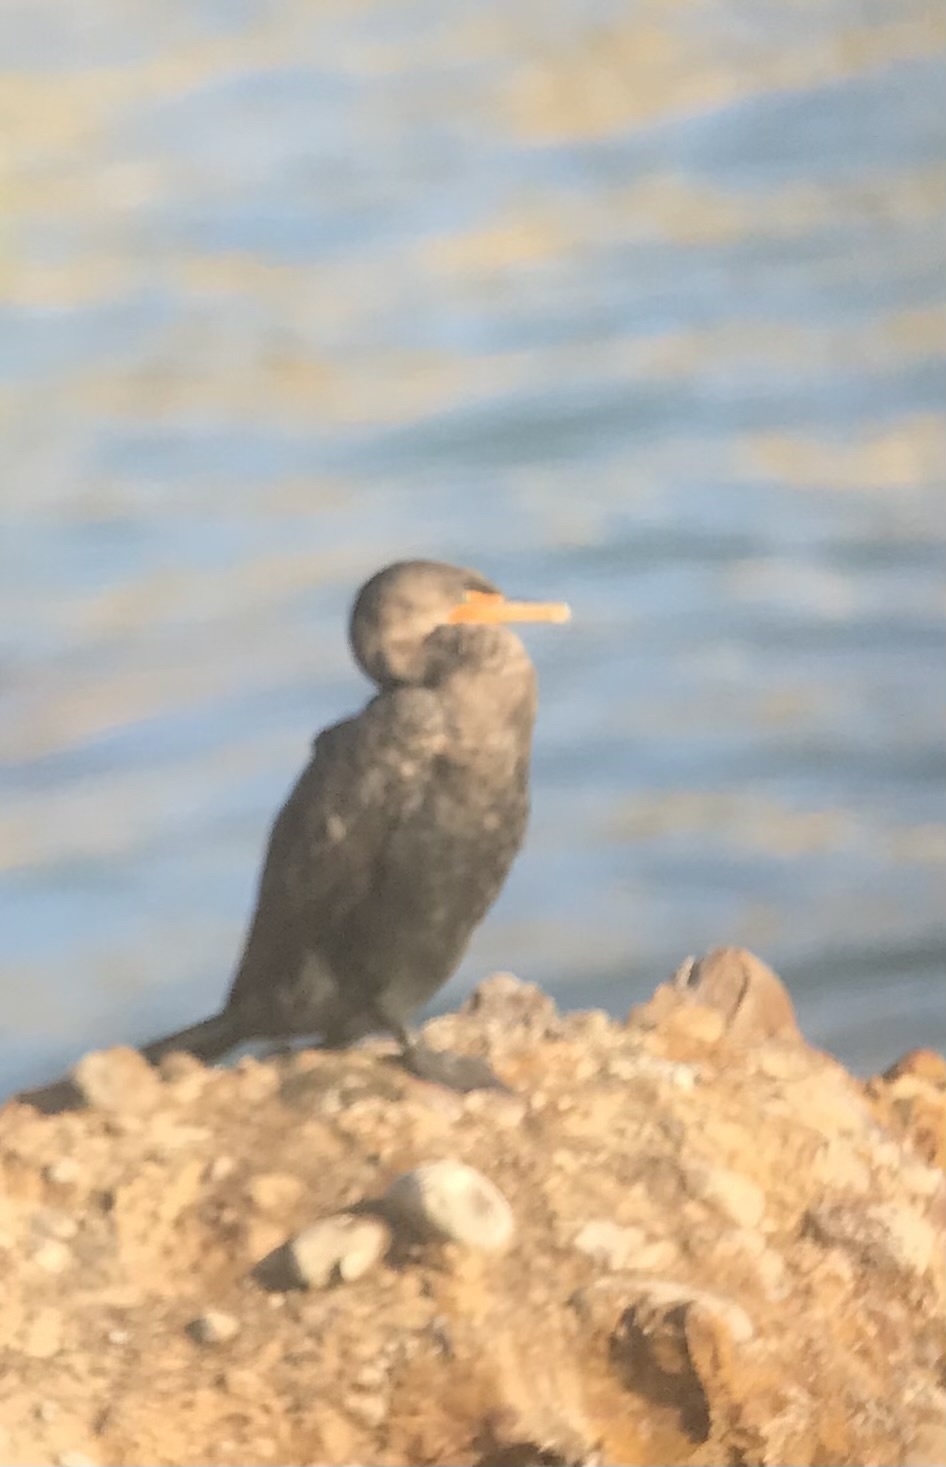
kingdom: Animalia
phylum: Chordata
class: Aves
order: Suliformes
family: Phalacrocoracidae
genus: Phalacrocorax
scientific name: Phalacrocorax auritus
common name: Double-crested cormorant
